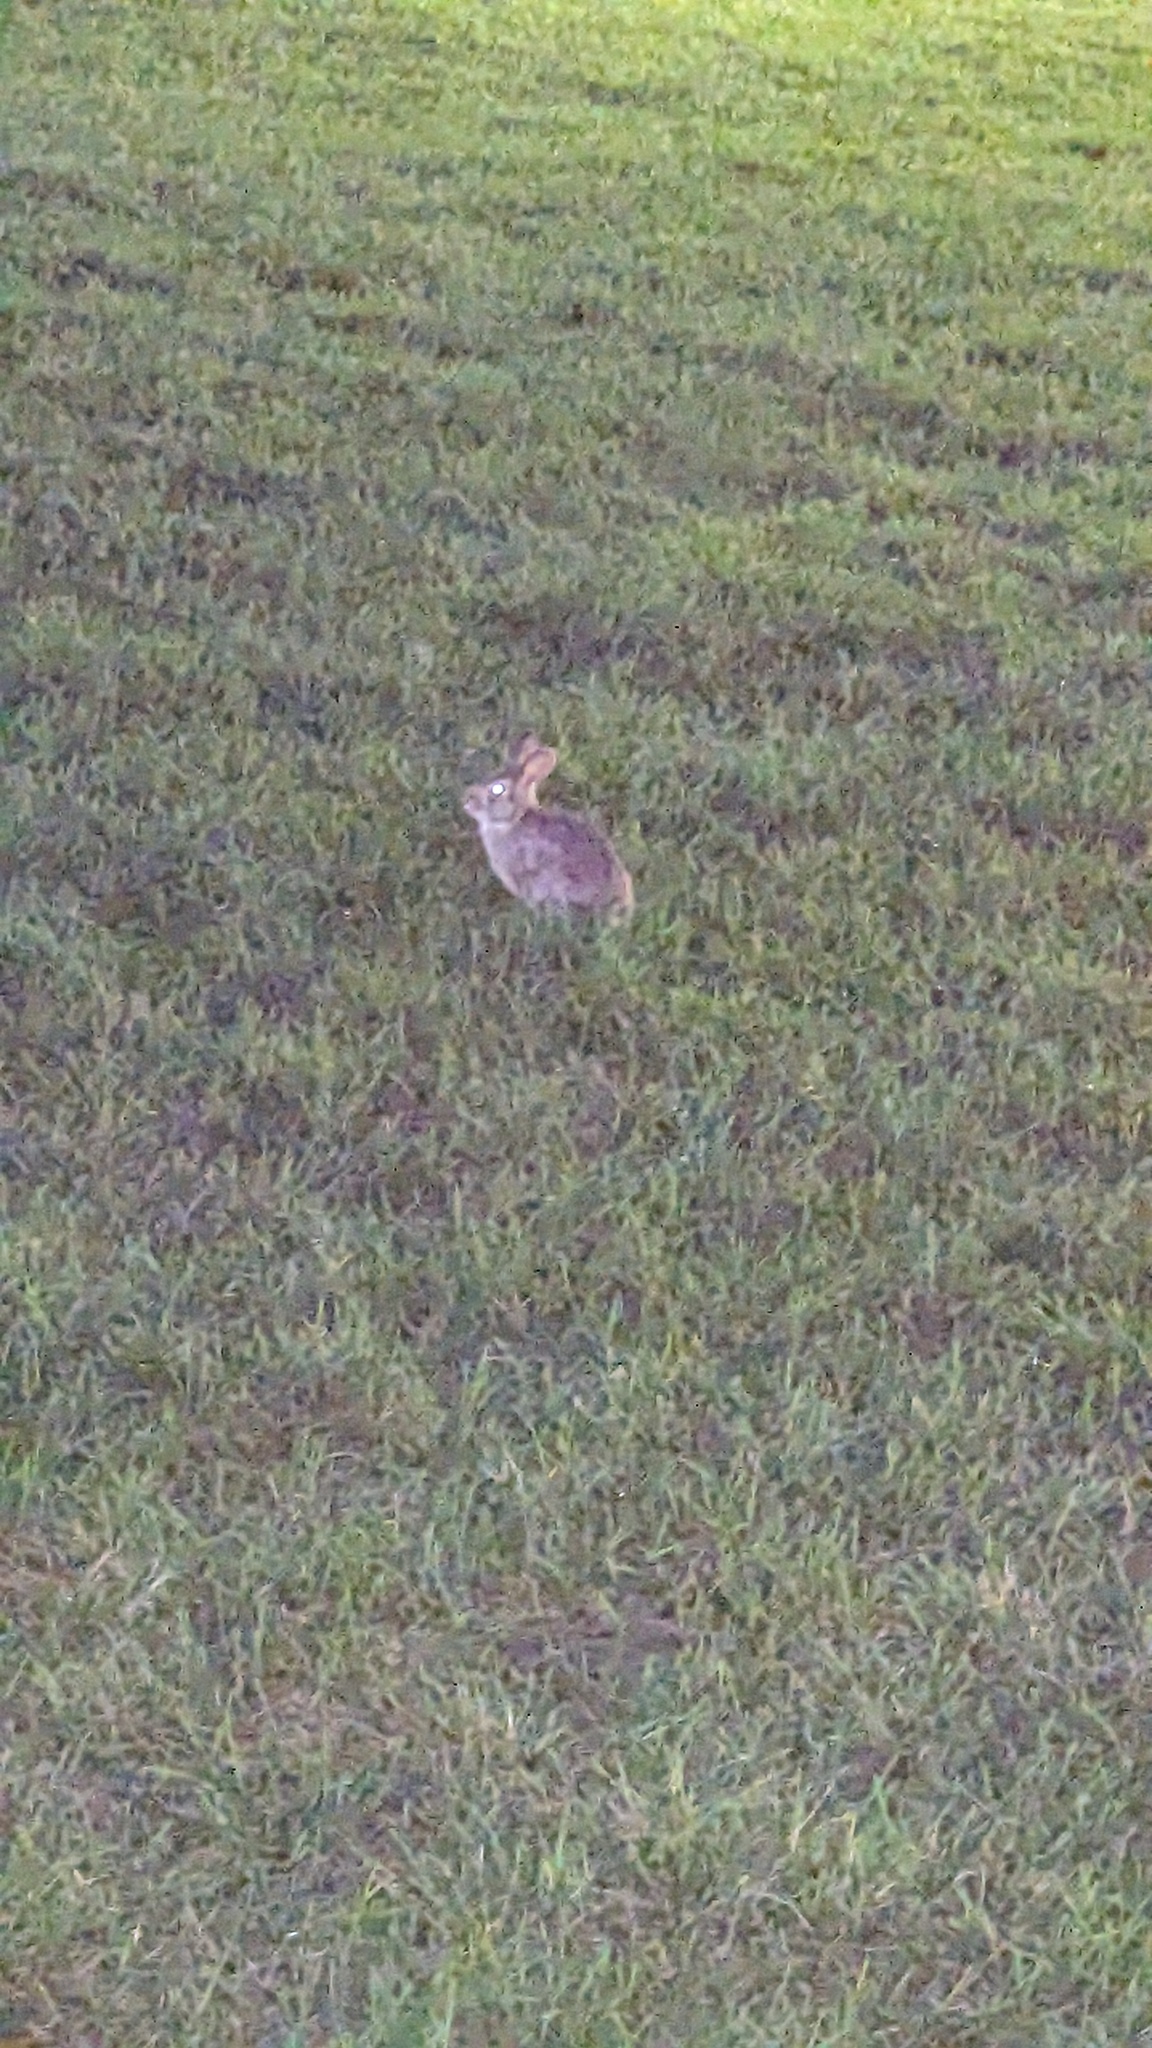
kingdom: Animalia
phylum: Chordata
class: Mammalia
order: Lagomorpha
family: Leporidae
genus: Sylvilagus
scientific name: Sylvilagus floridanus
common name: Eastern cottontail
